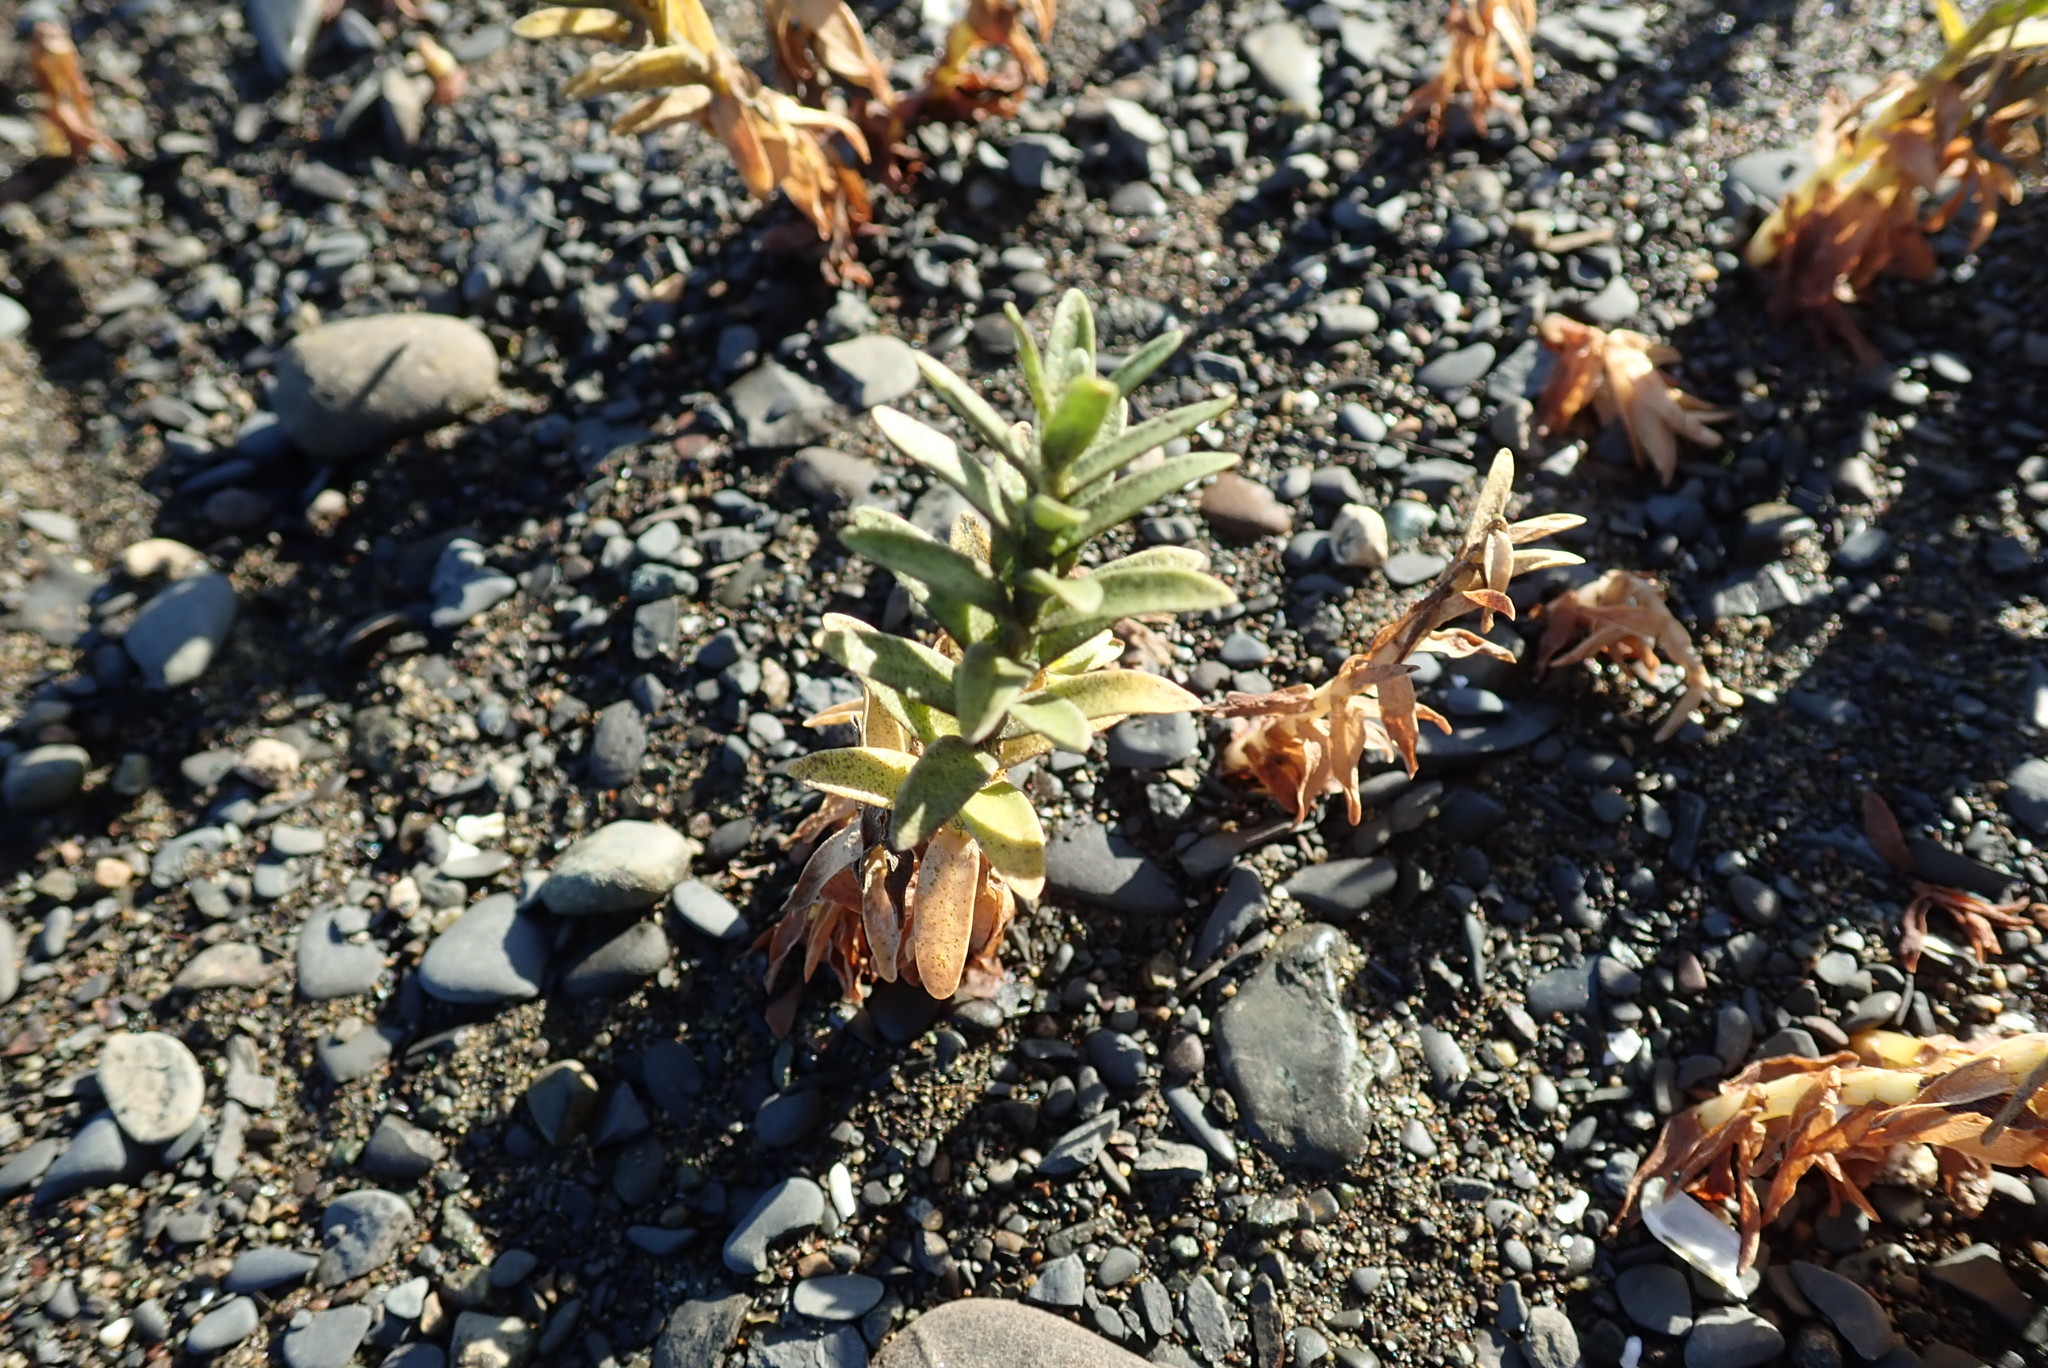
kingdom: Plantae
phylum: Tracheophyta
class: Magnoliopsida
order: Ericales
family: Primulaceae
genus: Lysimachia
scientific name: Lysimachia maritima
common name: Sea milkwort
